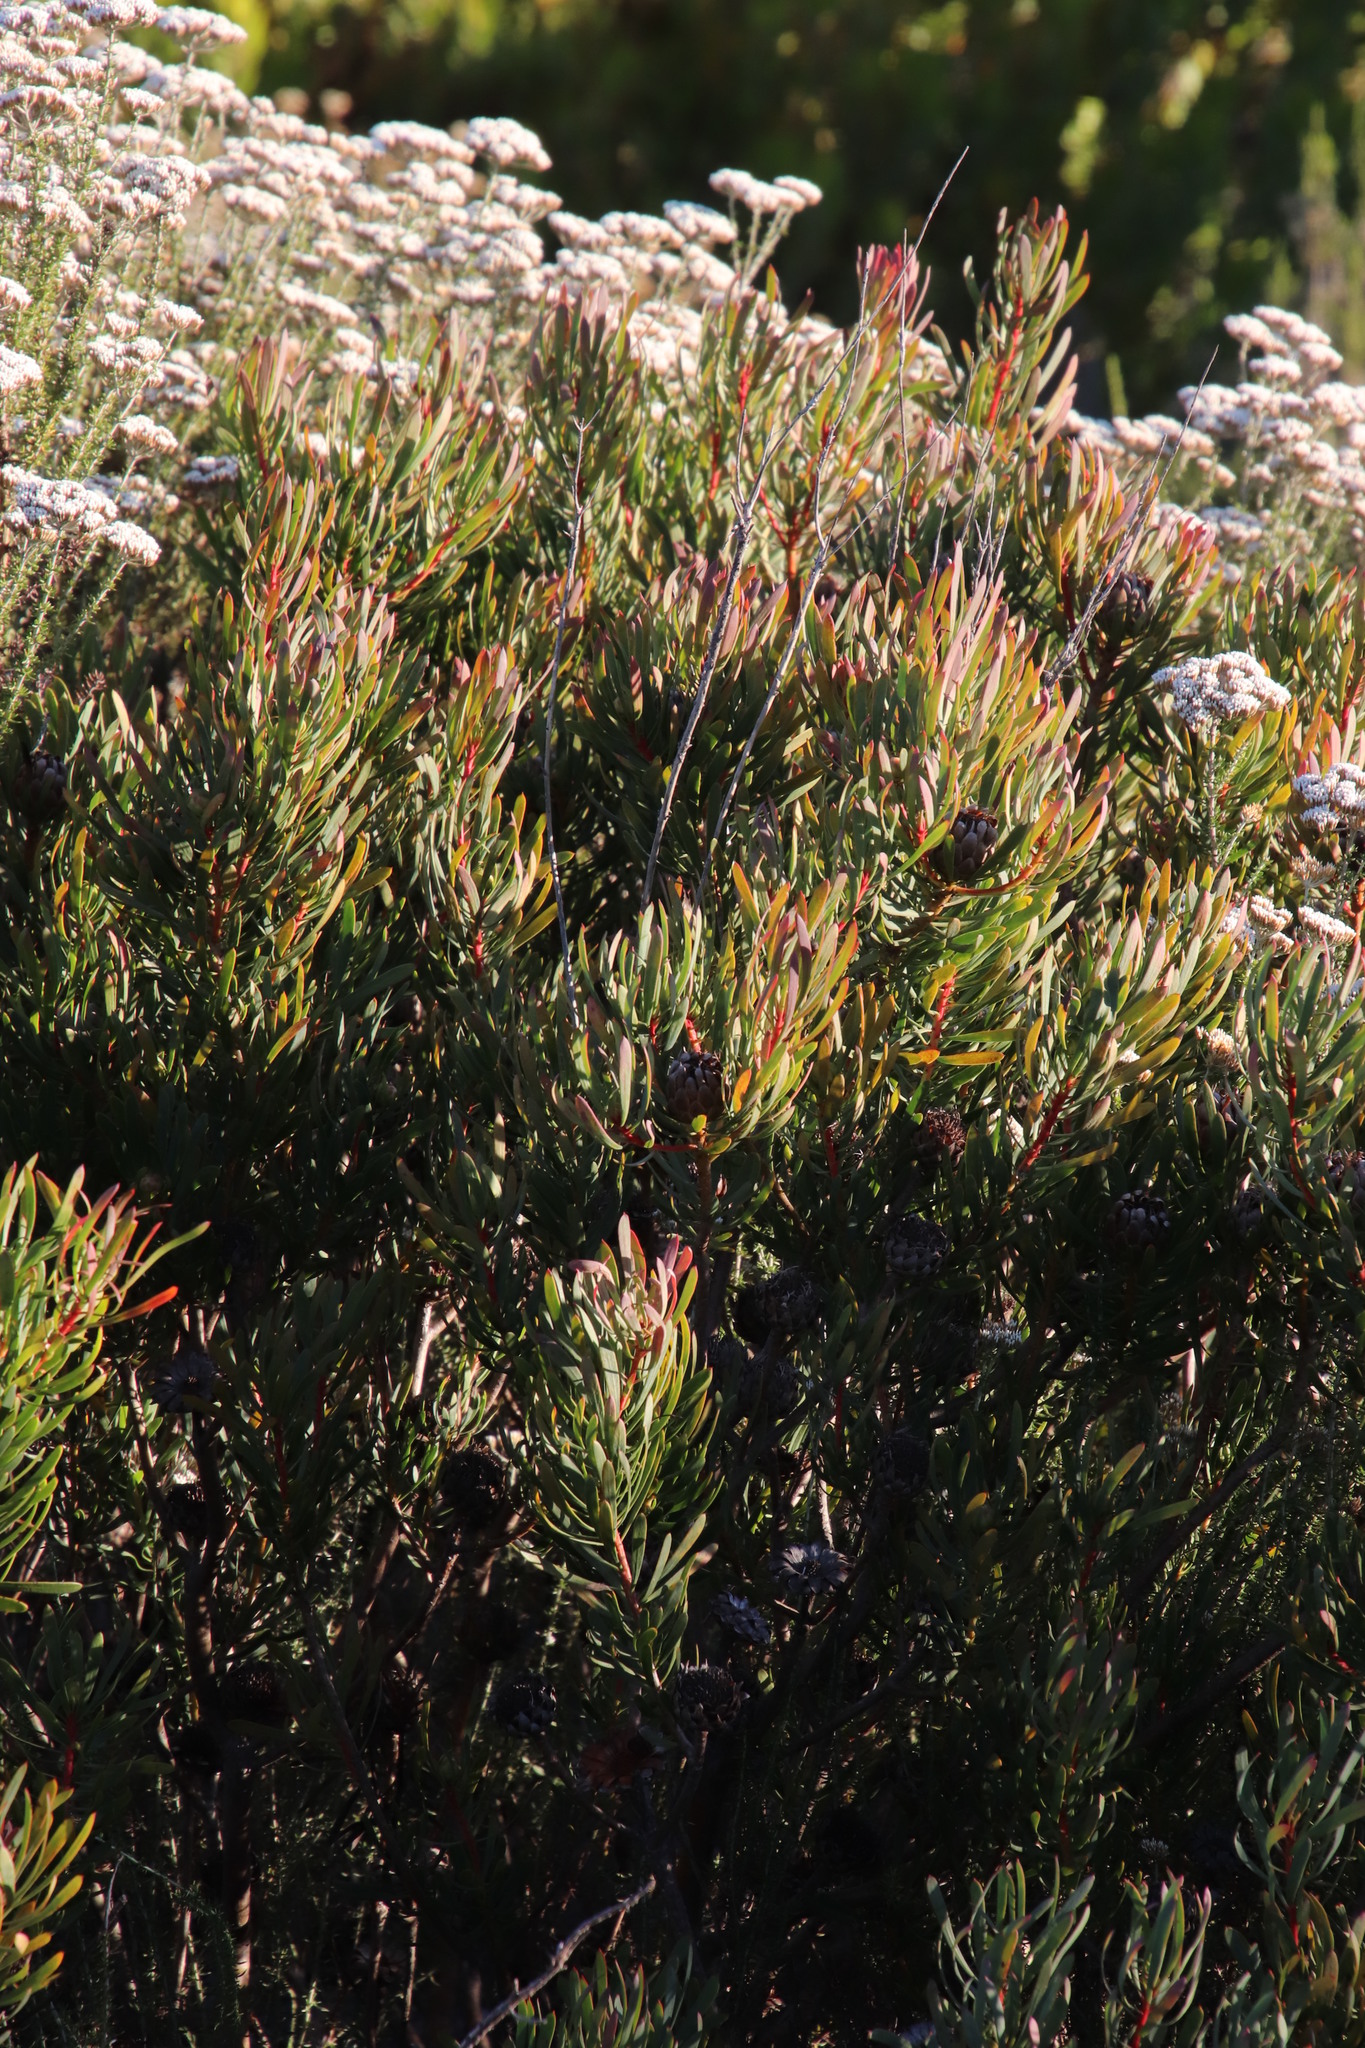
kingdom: Plantae
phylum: Tracheophyta
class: Magnoliopsida
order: Proteales
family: Proteaceae
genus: Protea
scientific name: Protea scolymocephala
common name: Thistle sugarbush
